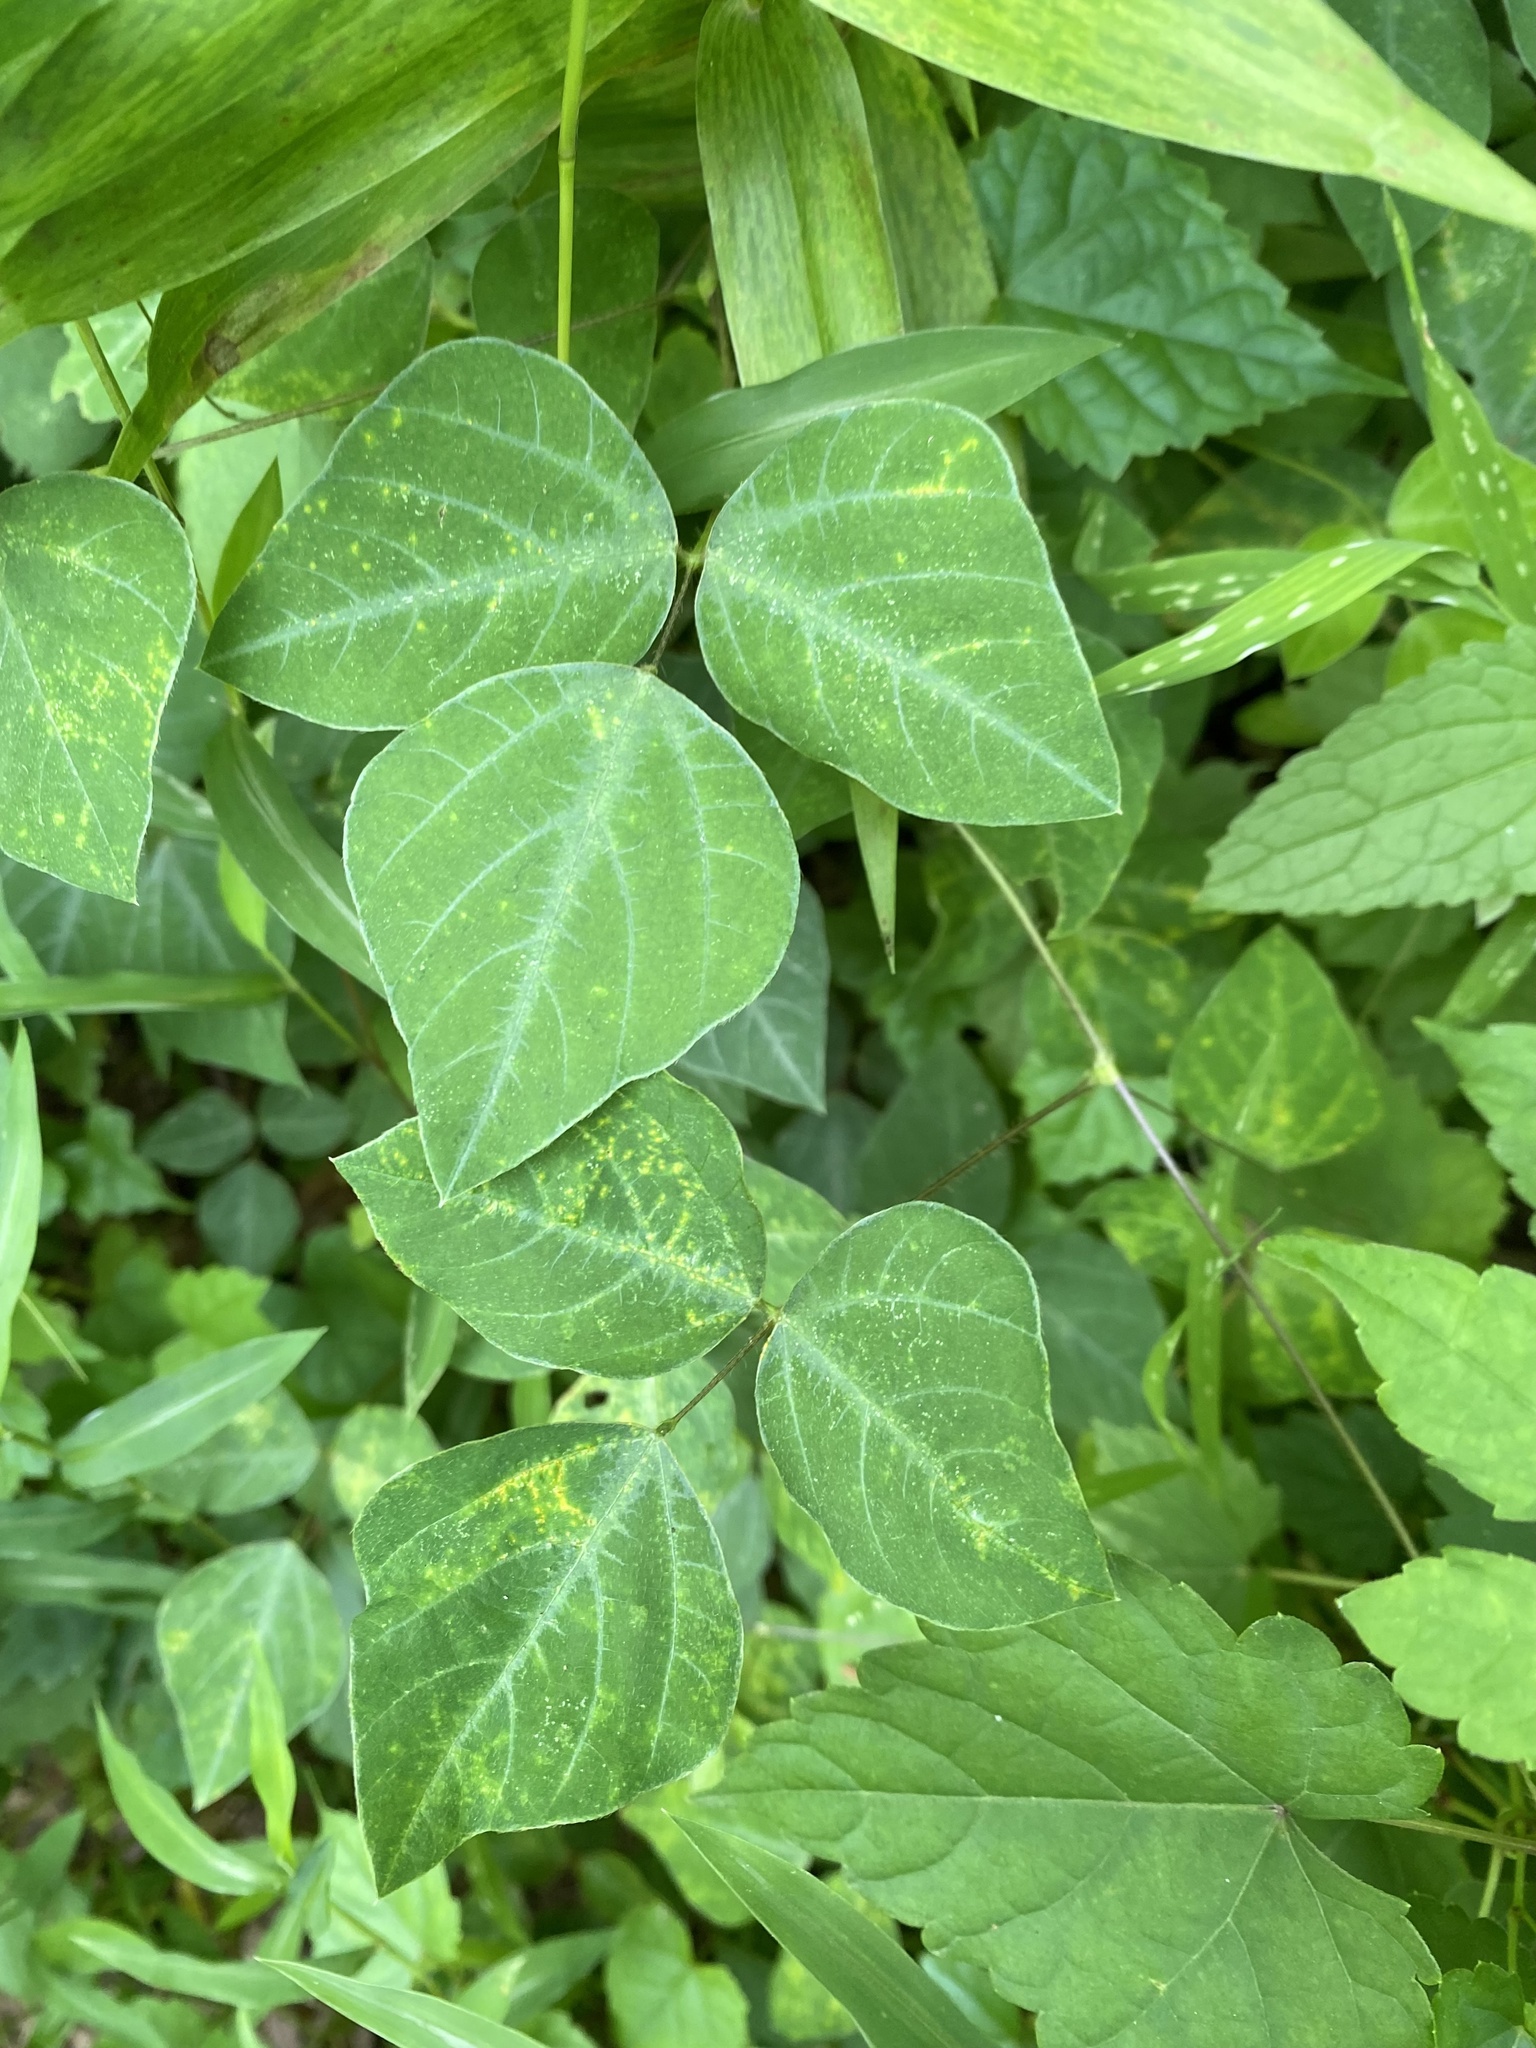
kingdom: Fungi
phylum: Chytridiomycota
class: Chytridiomycetes
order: Chytridiales
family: Synchytriaceae
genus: Miyabella
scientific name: Miyabella aecidioides
